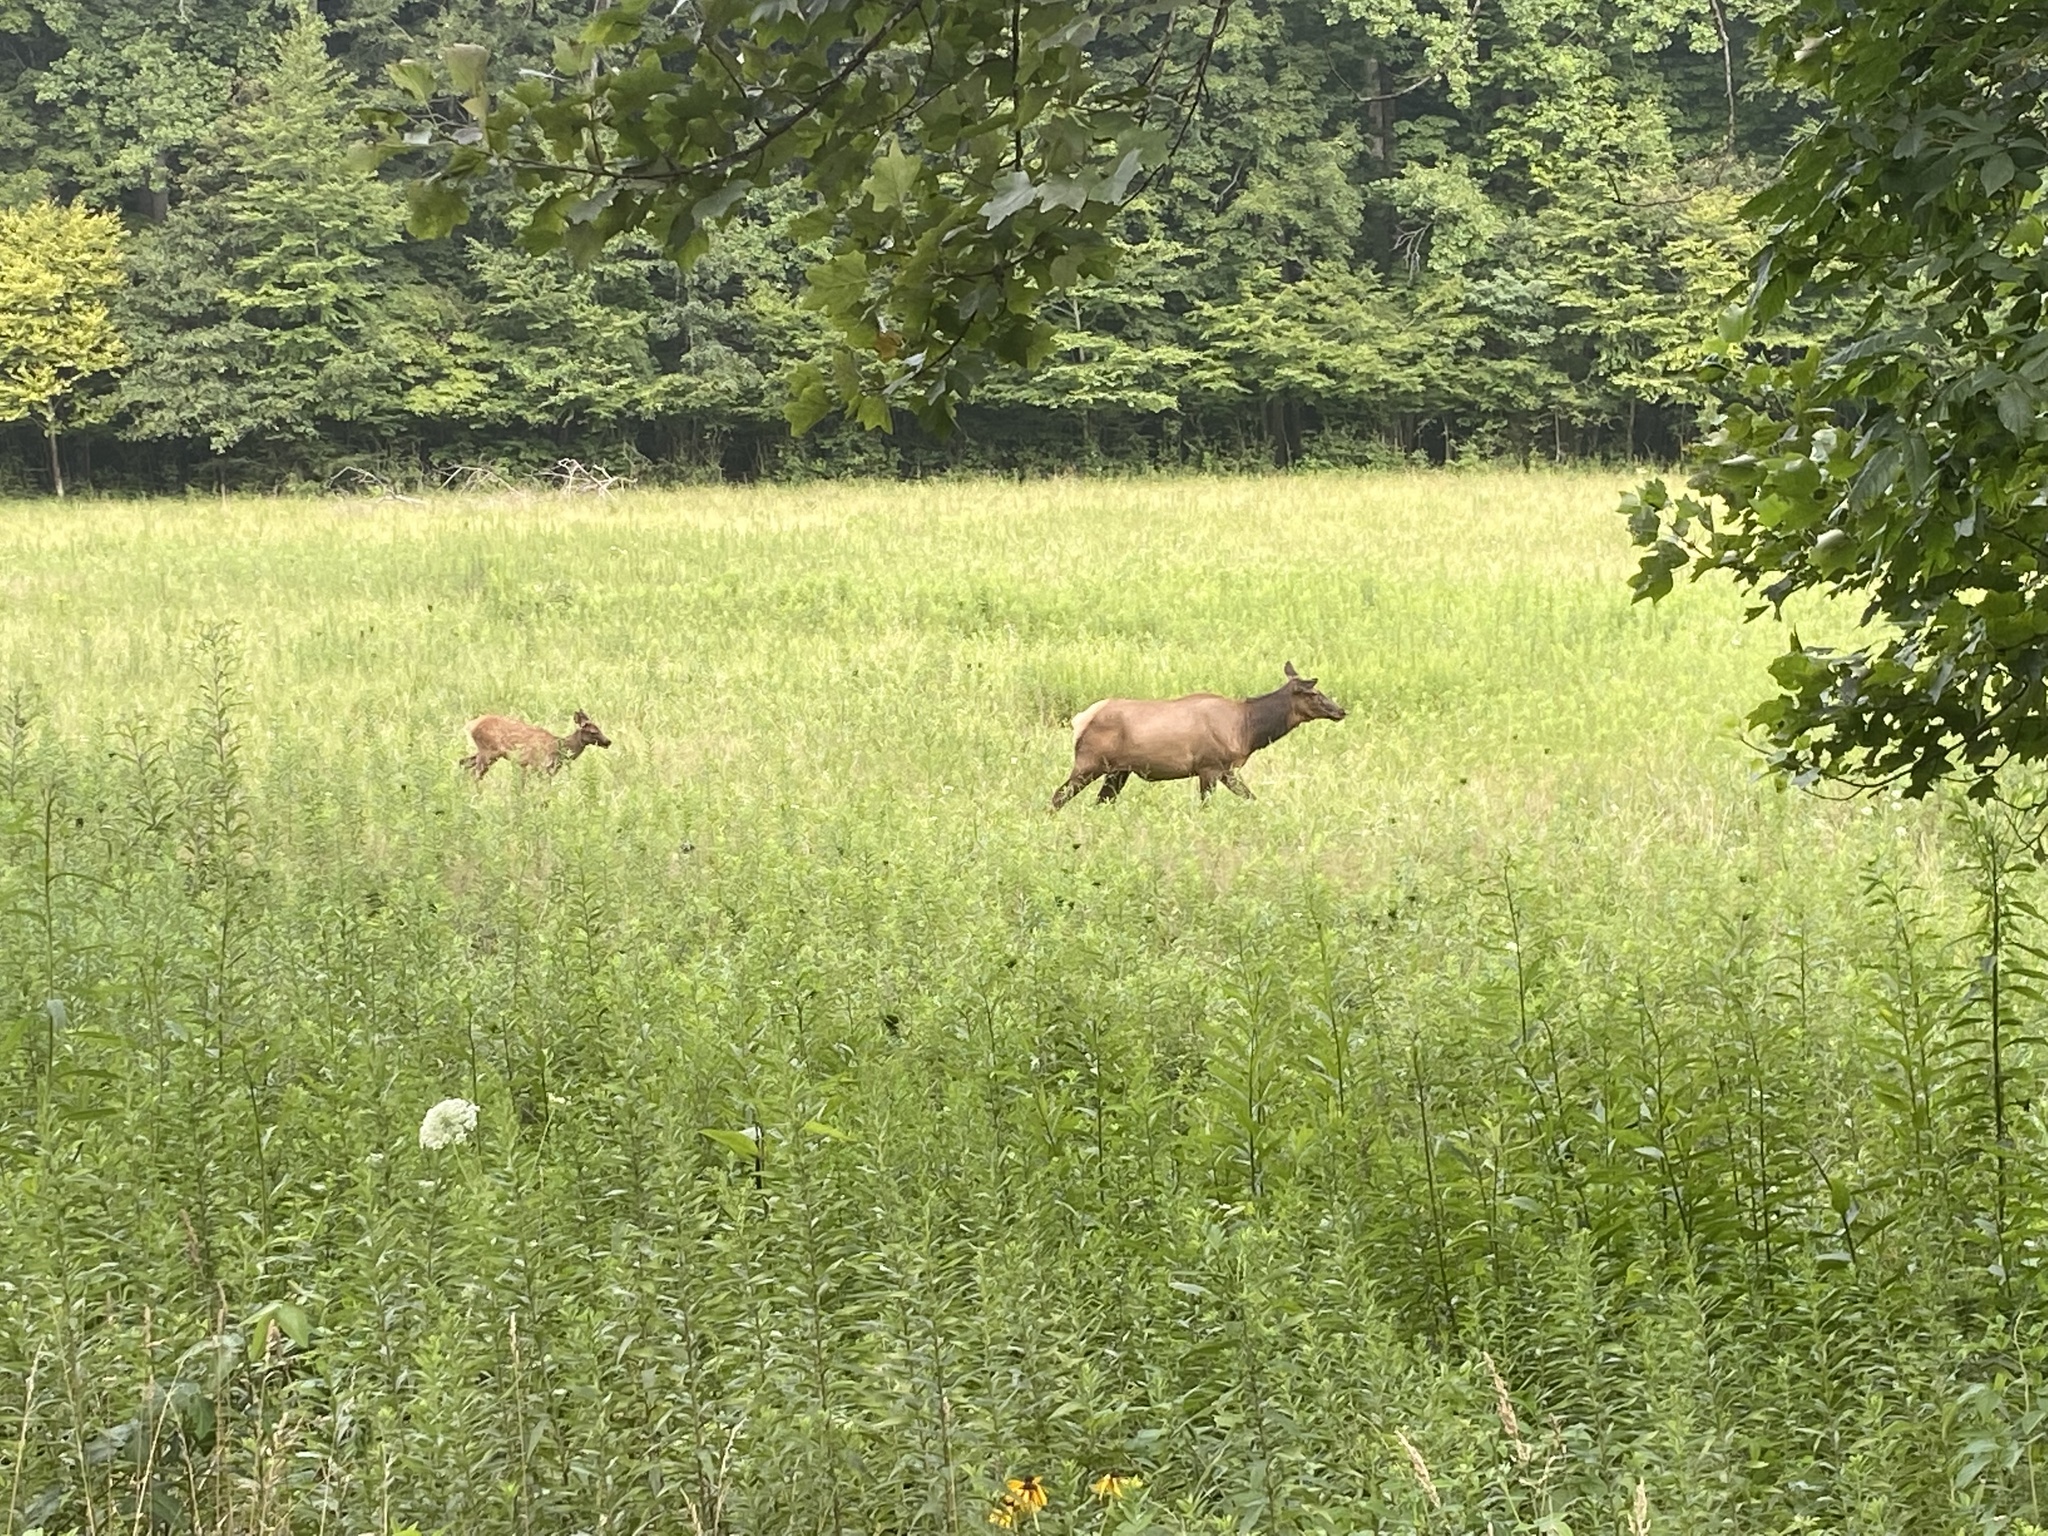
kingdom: Animalia
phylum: Chordata
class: Mammalia
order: Artiodactyla
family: Cervidae
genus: Cervus
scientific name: Cervus elaphus
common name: Red deer
